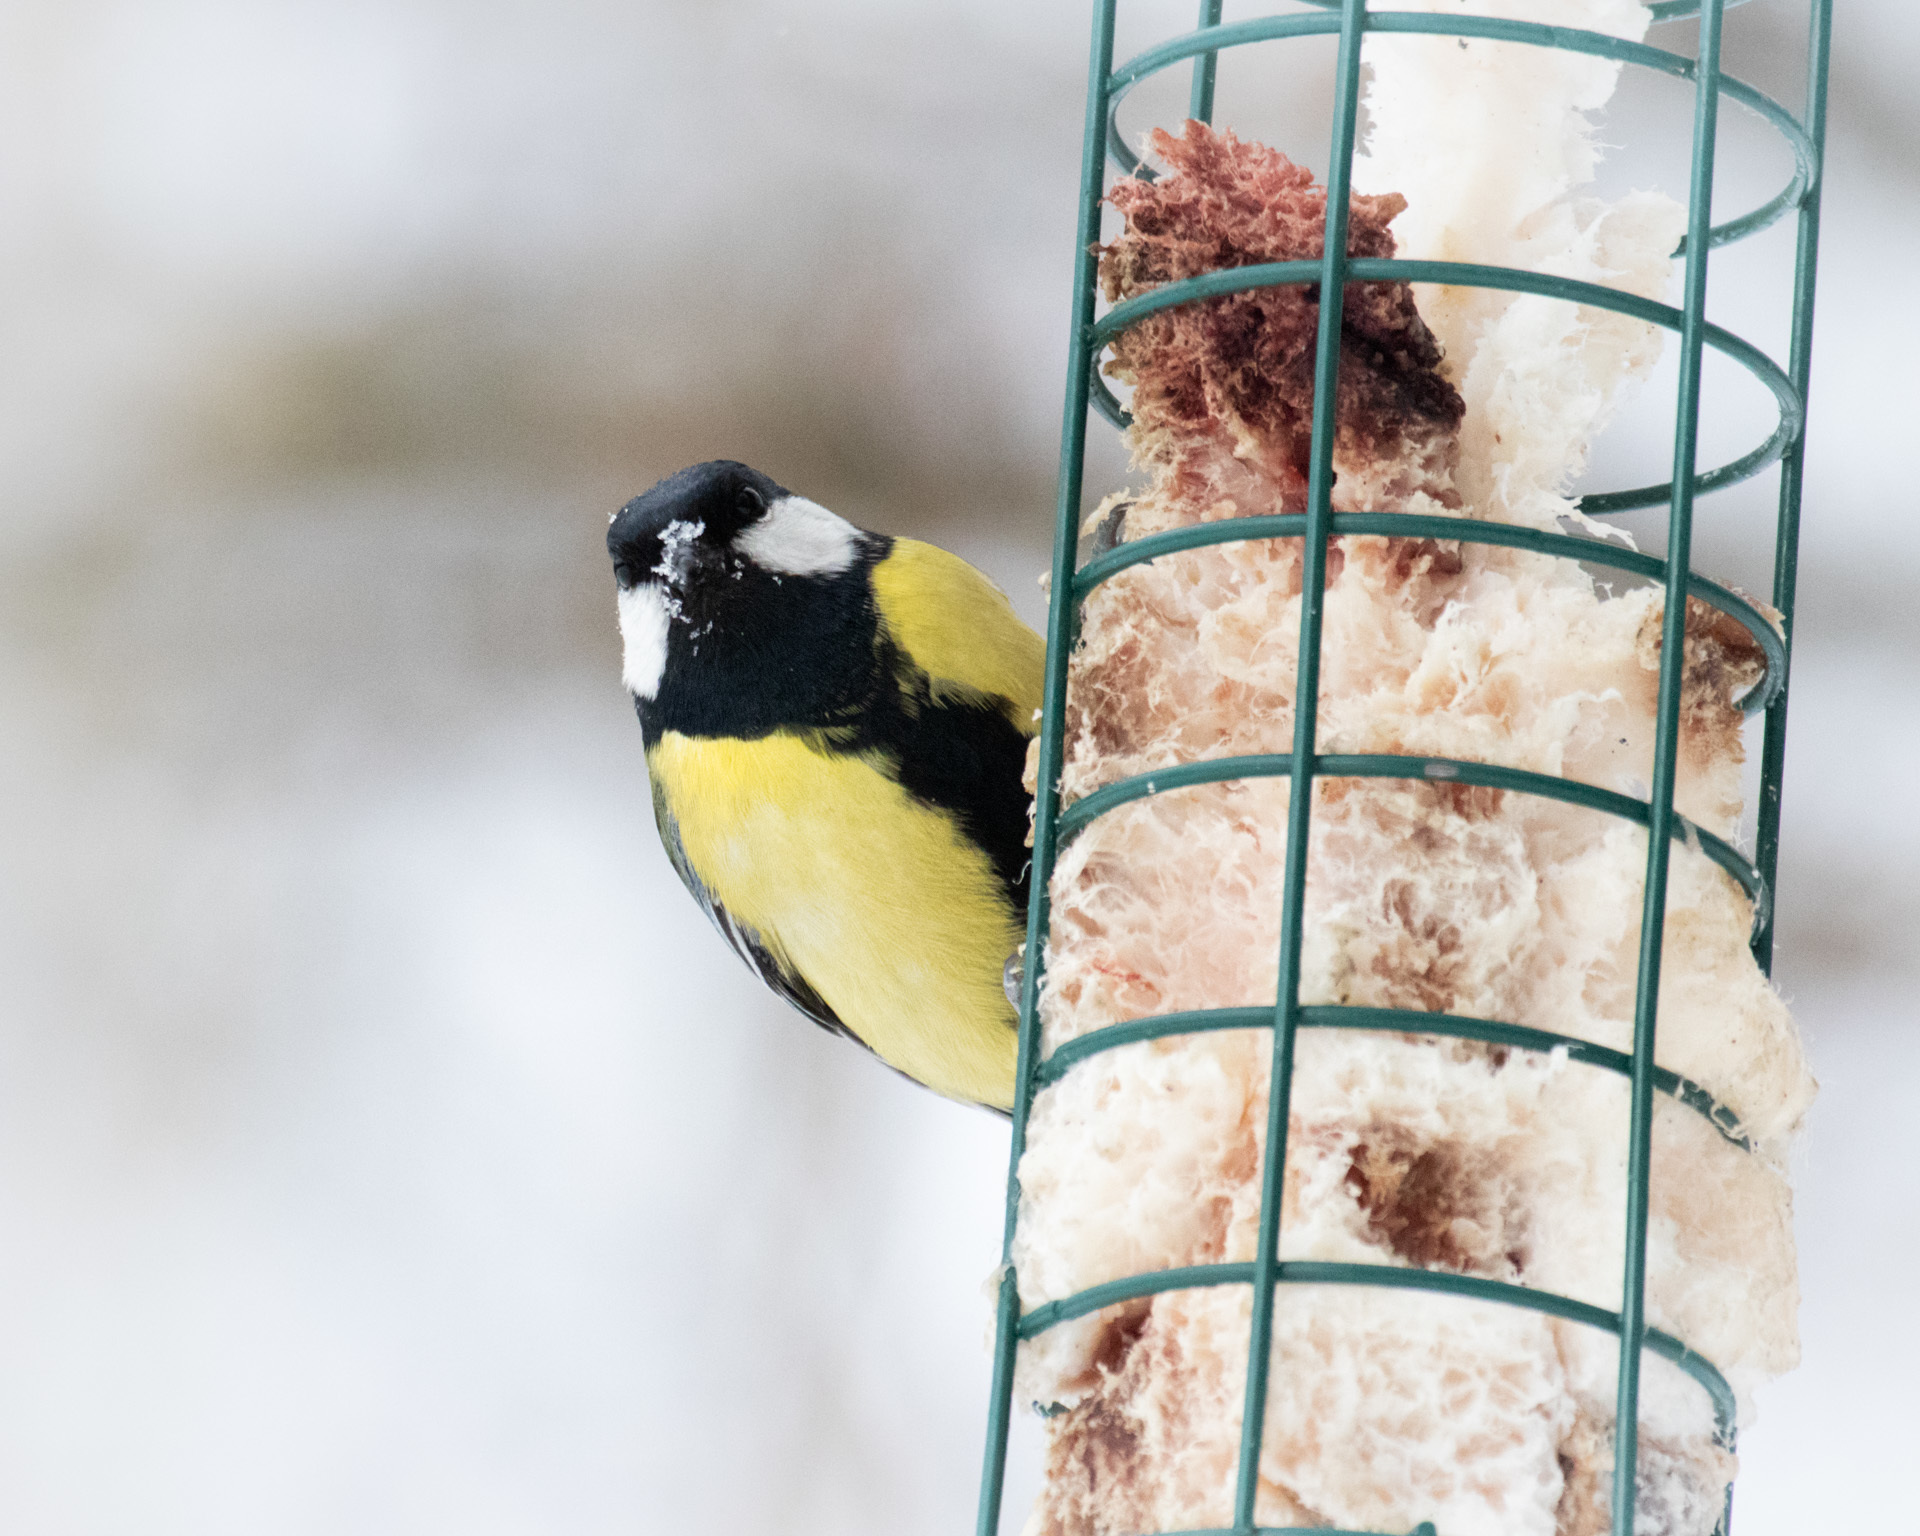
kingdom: Animalia
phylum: Chordata
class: Aves
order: Passeriformes
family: Paridae
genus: Parus
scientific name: Parus major
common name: Great tit
